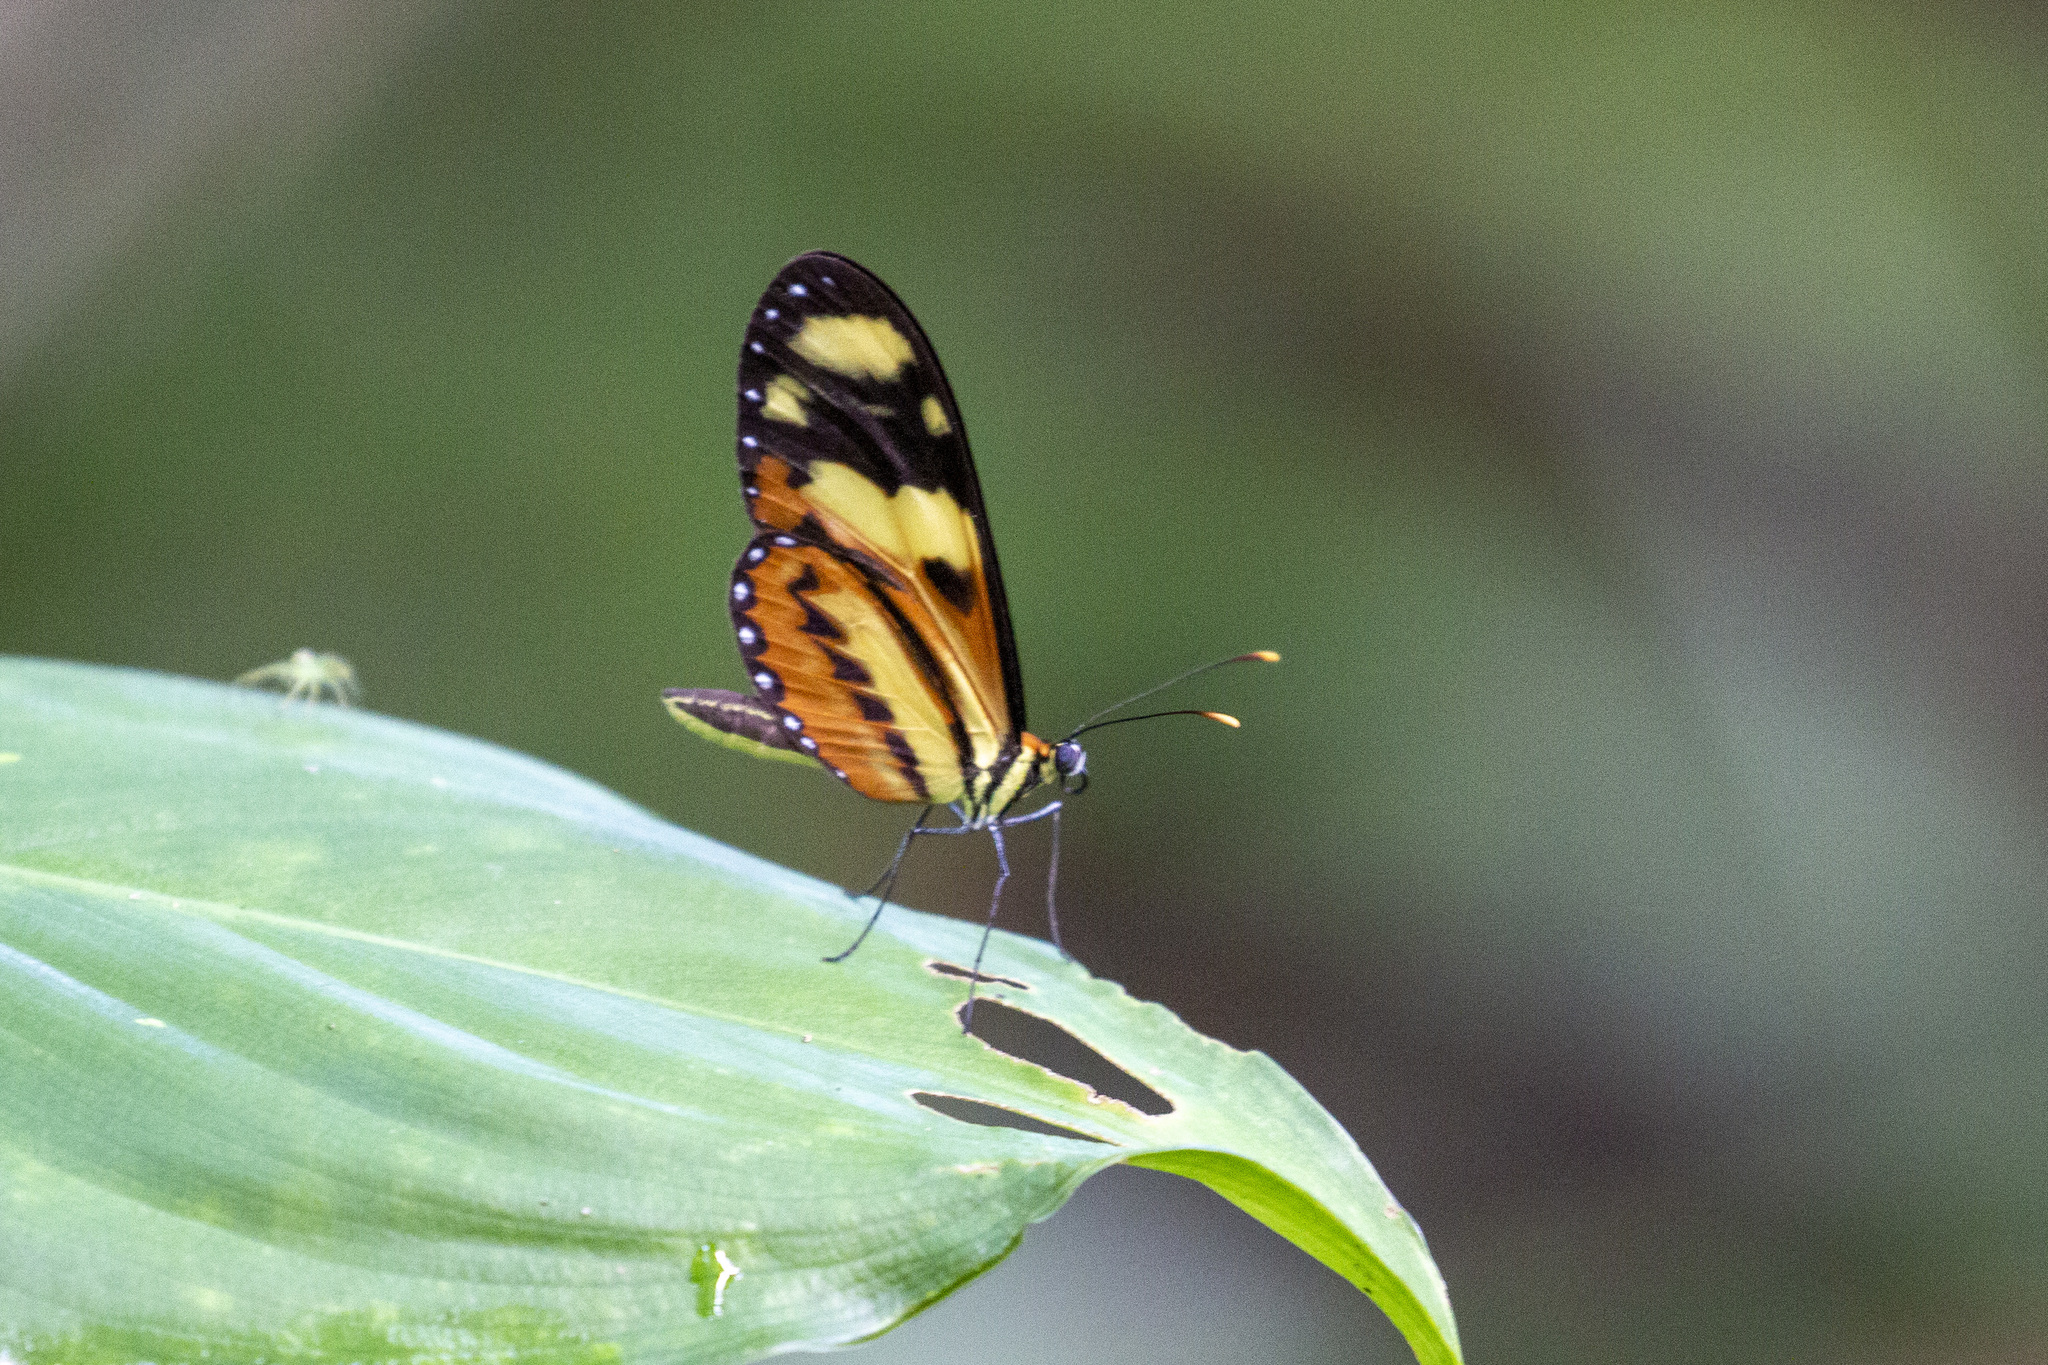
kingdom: Animalia
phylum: Arthropoda
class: Insecta
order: Lepidoptera
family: Nymphalidae
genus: Mechanitis
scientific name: Mechanitis lysimnia
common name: Lysimnia tigerwing
